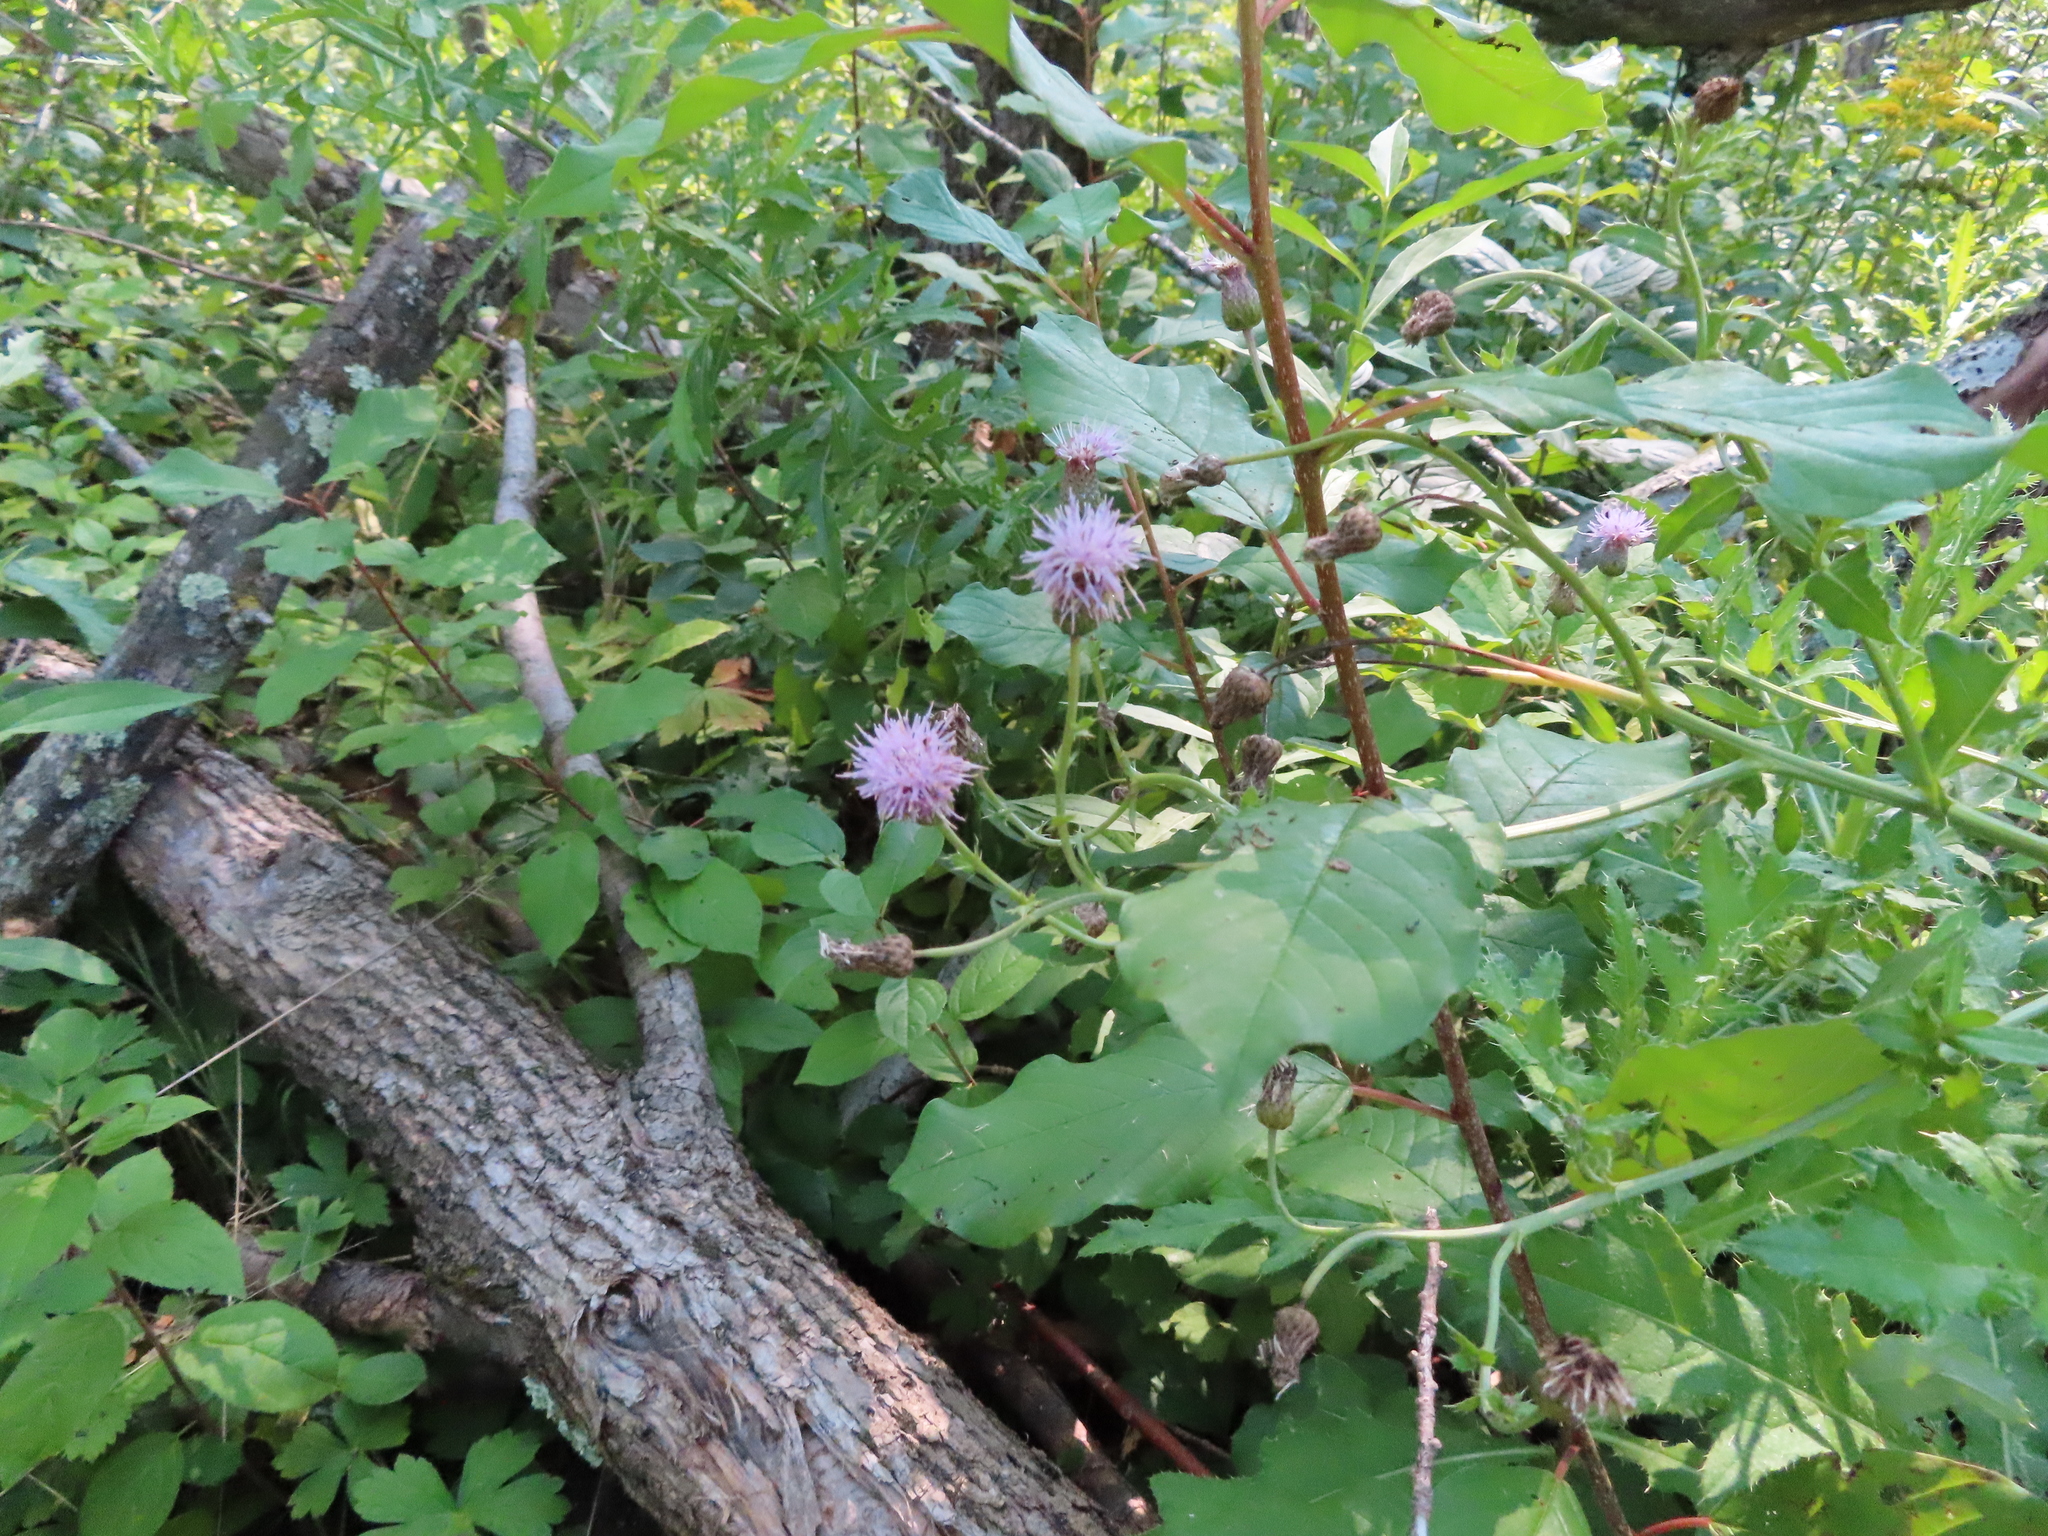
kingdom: Plantae
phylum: Tracheophyta
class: Magnoliopsida
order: Asterales
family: Asteraceae
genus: Cirsium
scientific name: Cirsium arvense
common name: Creeping thistle
